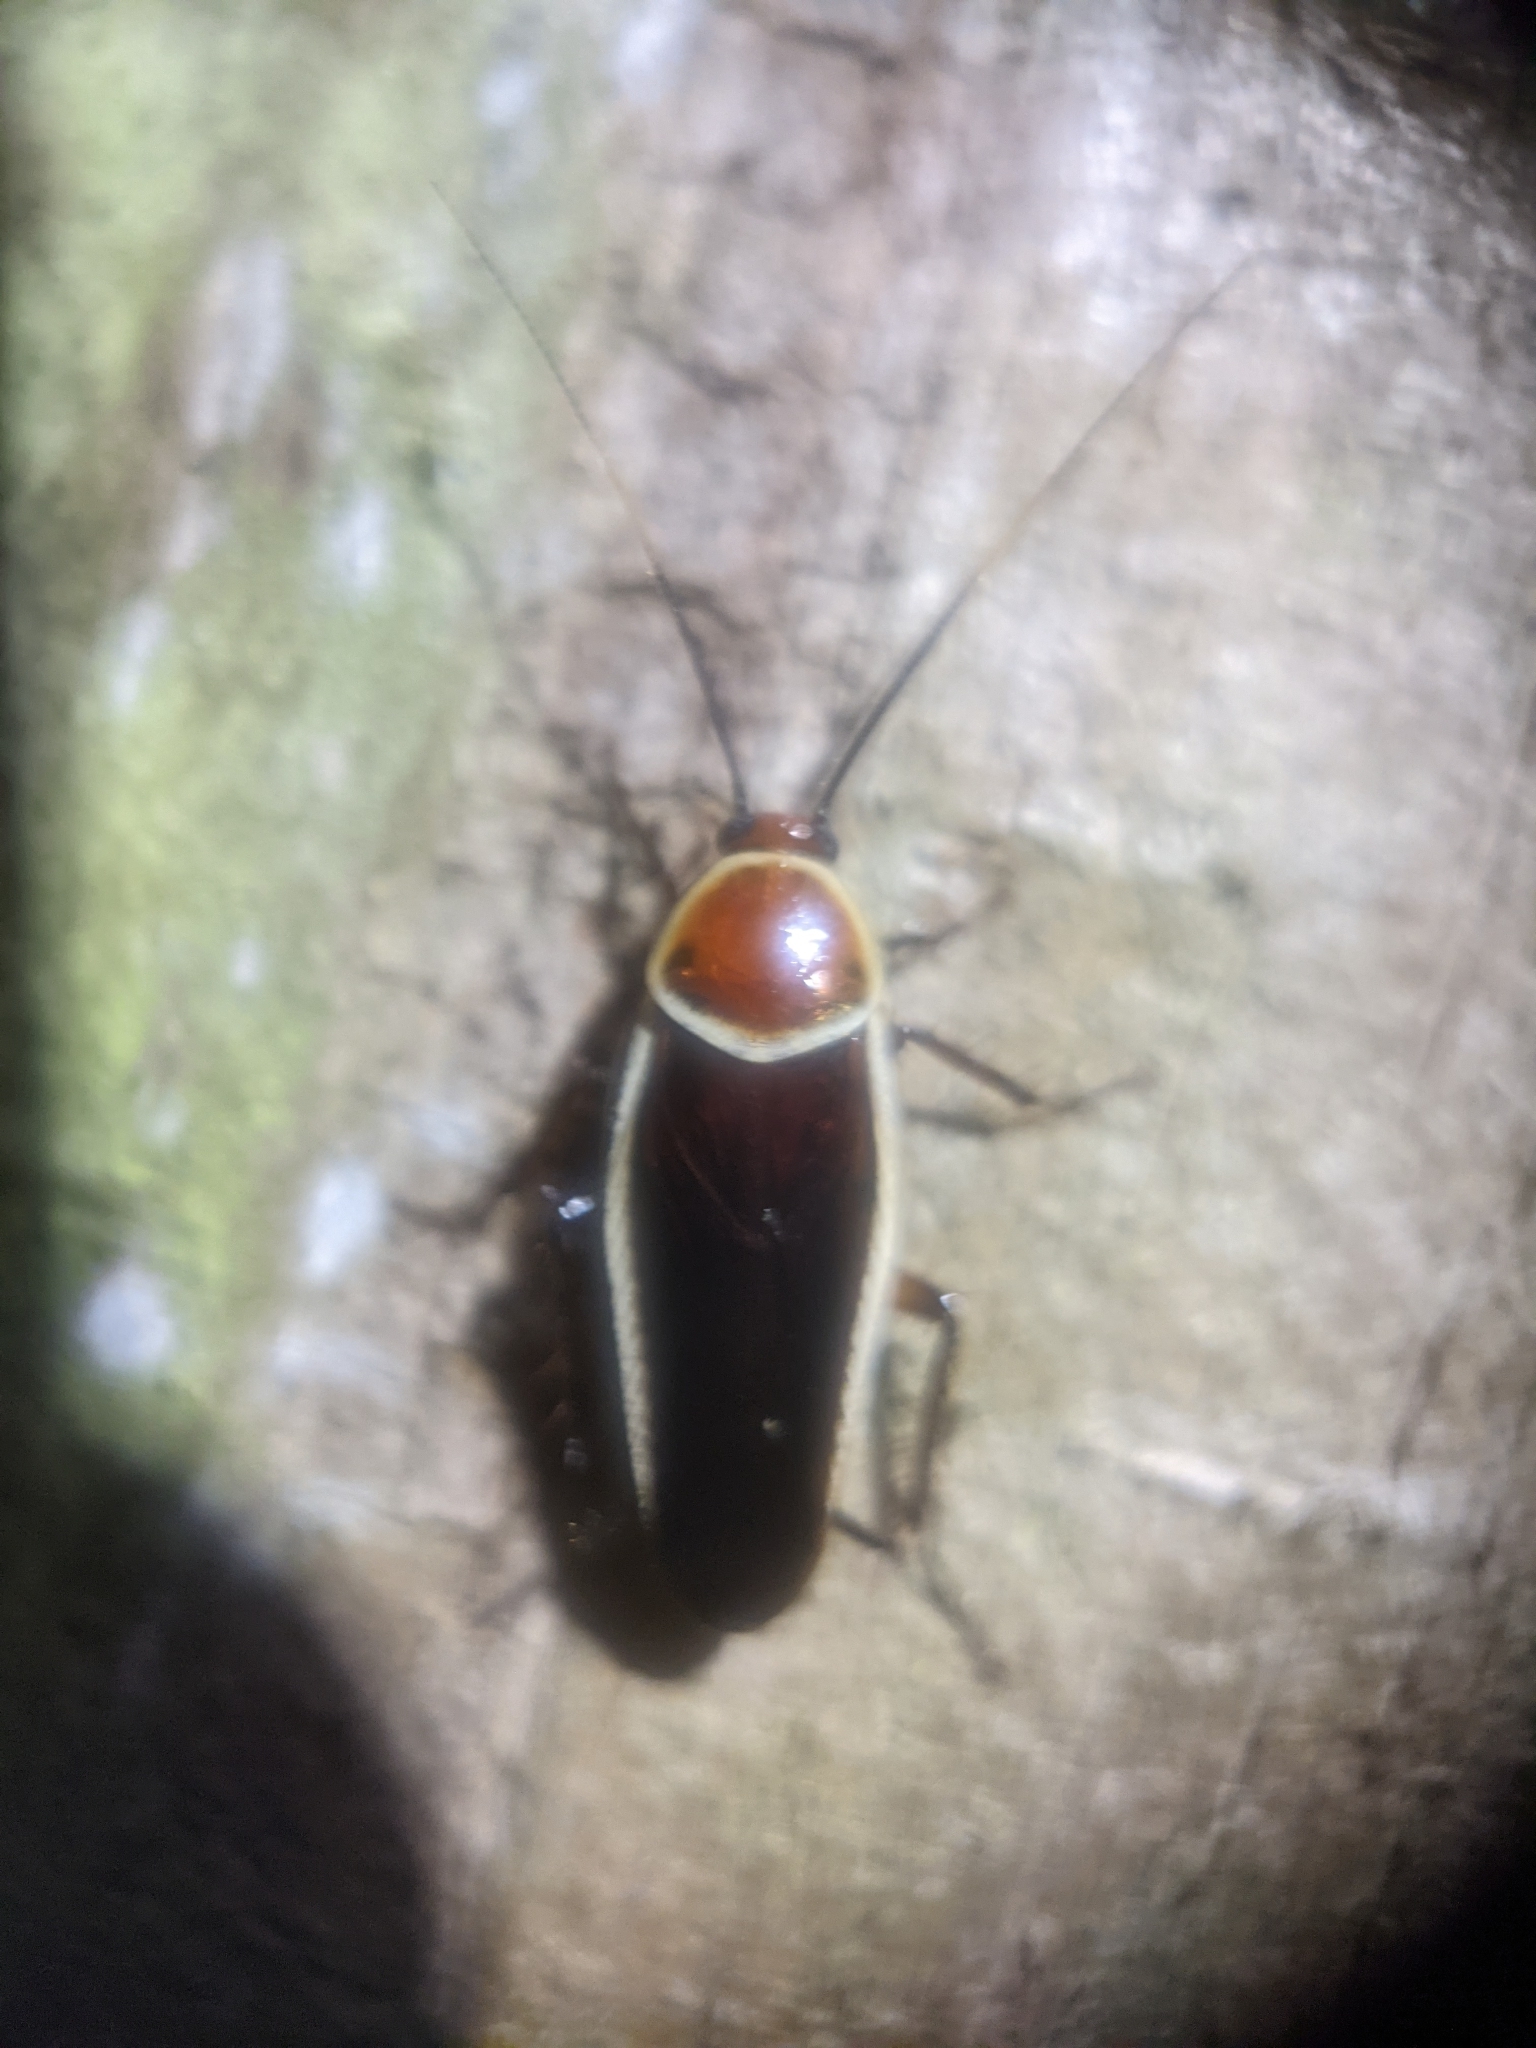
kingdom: Animalia
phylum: Arthropoda
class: Insecta
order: Blattodea
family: Ectobiidae
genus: Pseudomops
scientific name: Pseudomops septentrionalis
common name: Pale-bordered field cockroach
